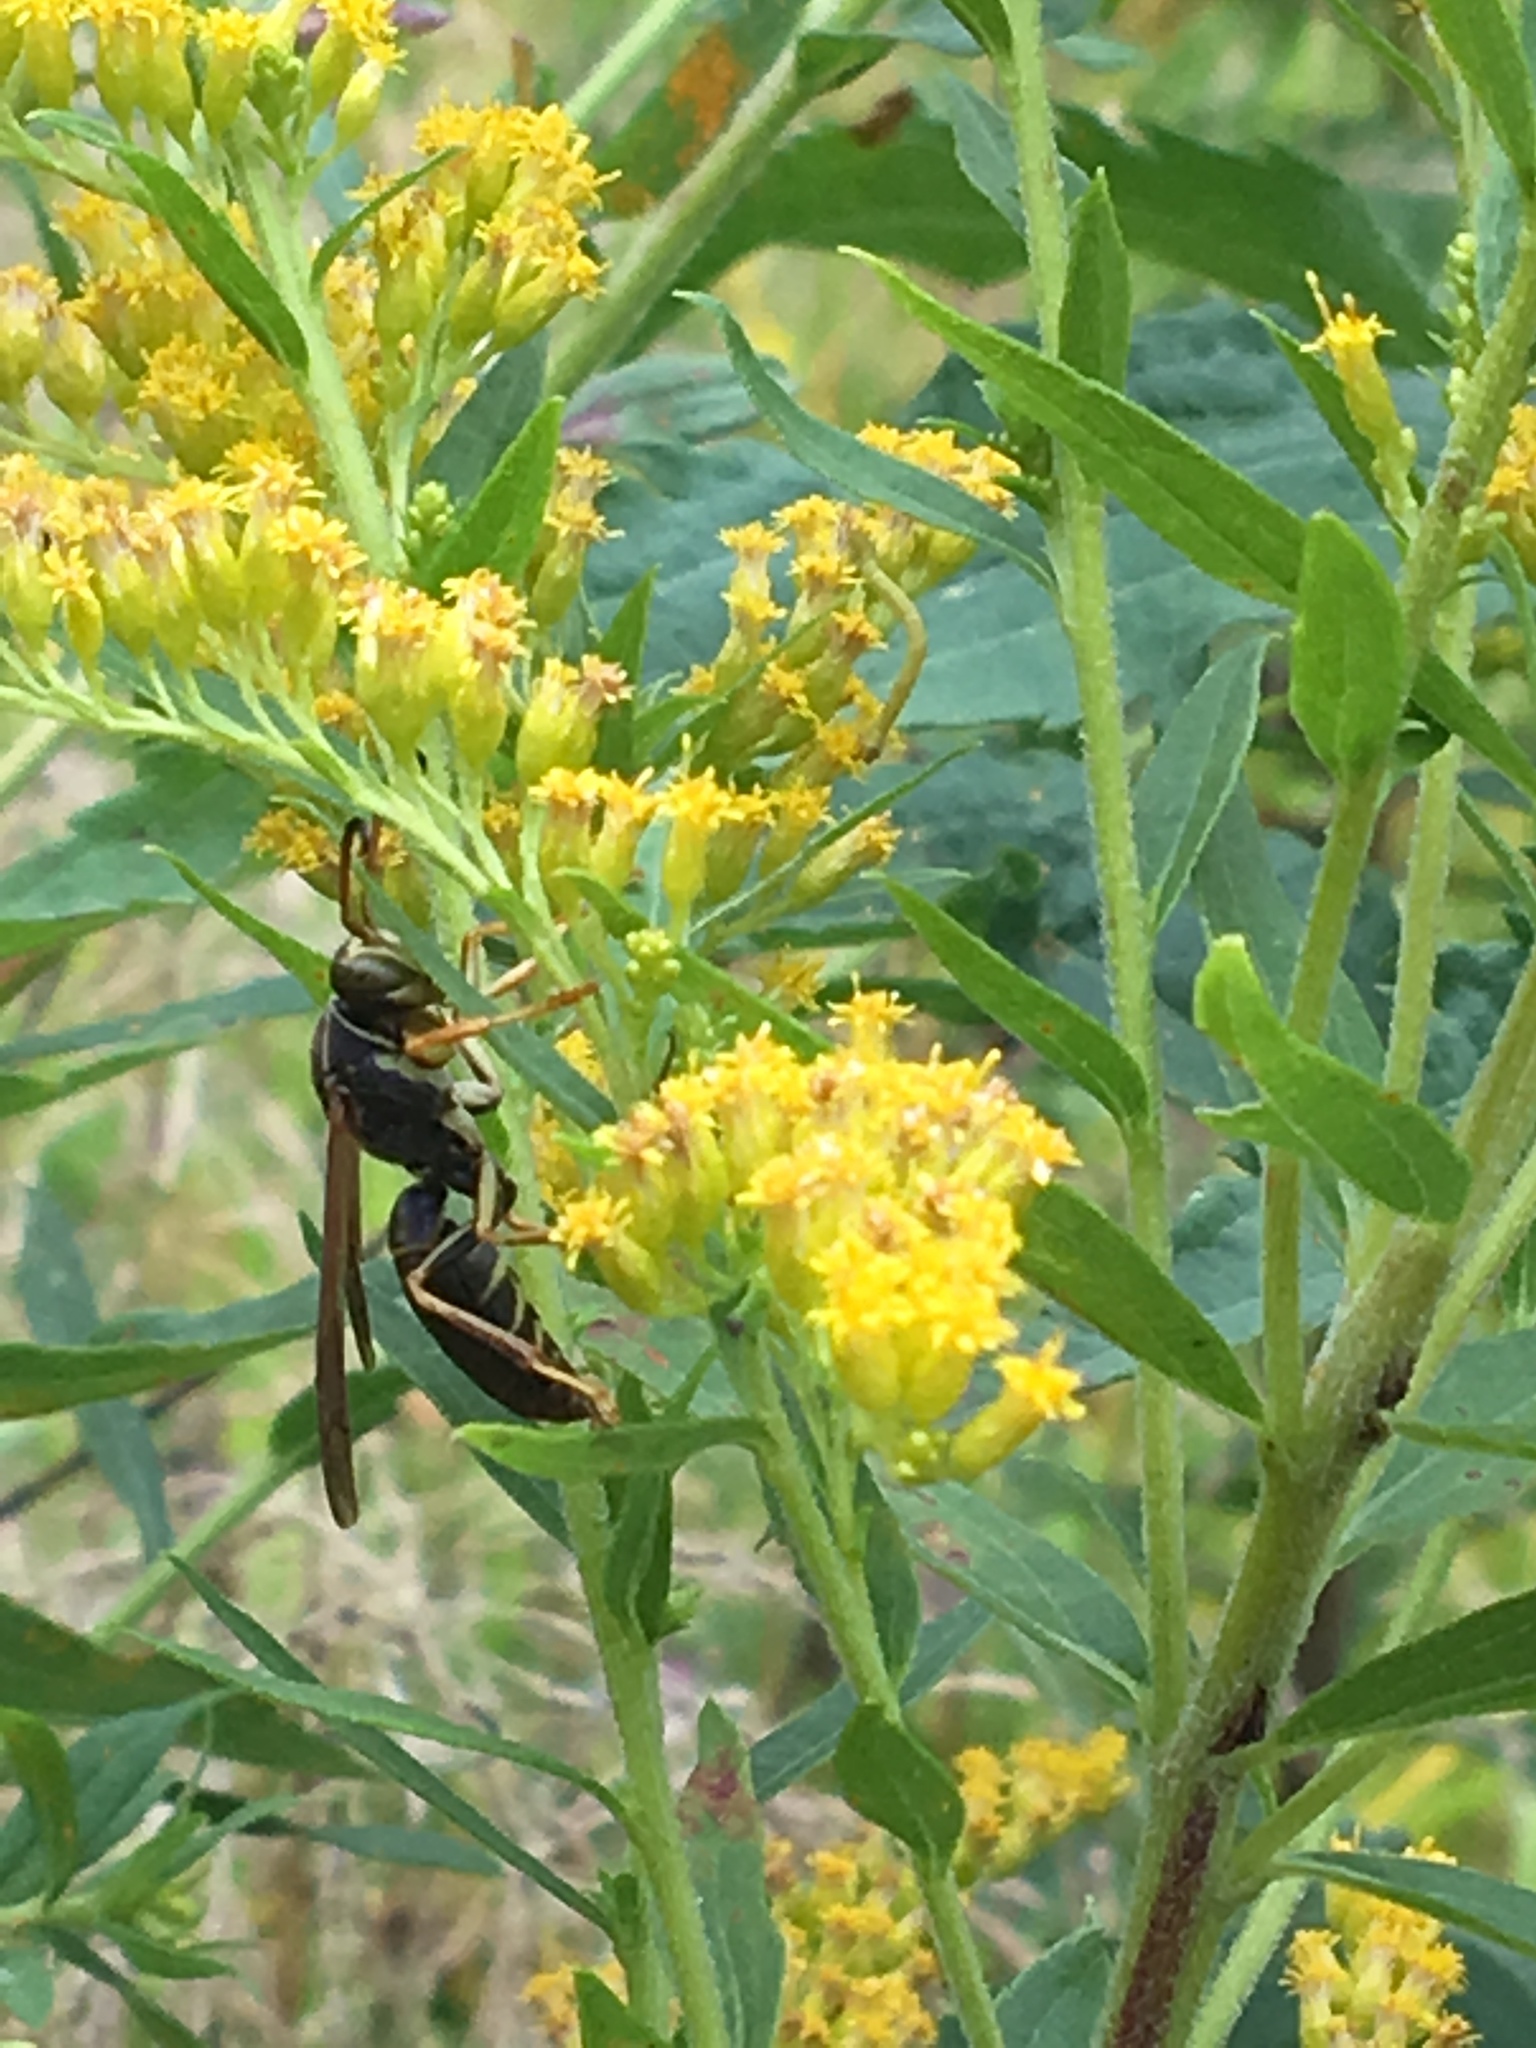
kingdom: Animalia
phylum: Arthropoda
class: Insecta
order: Hymenoptera
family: Eumenidae
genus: Polistes
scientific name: Polistes fuscatus
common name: Dark paper wasp
